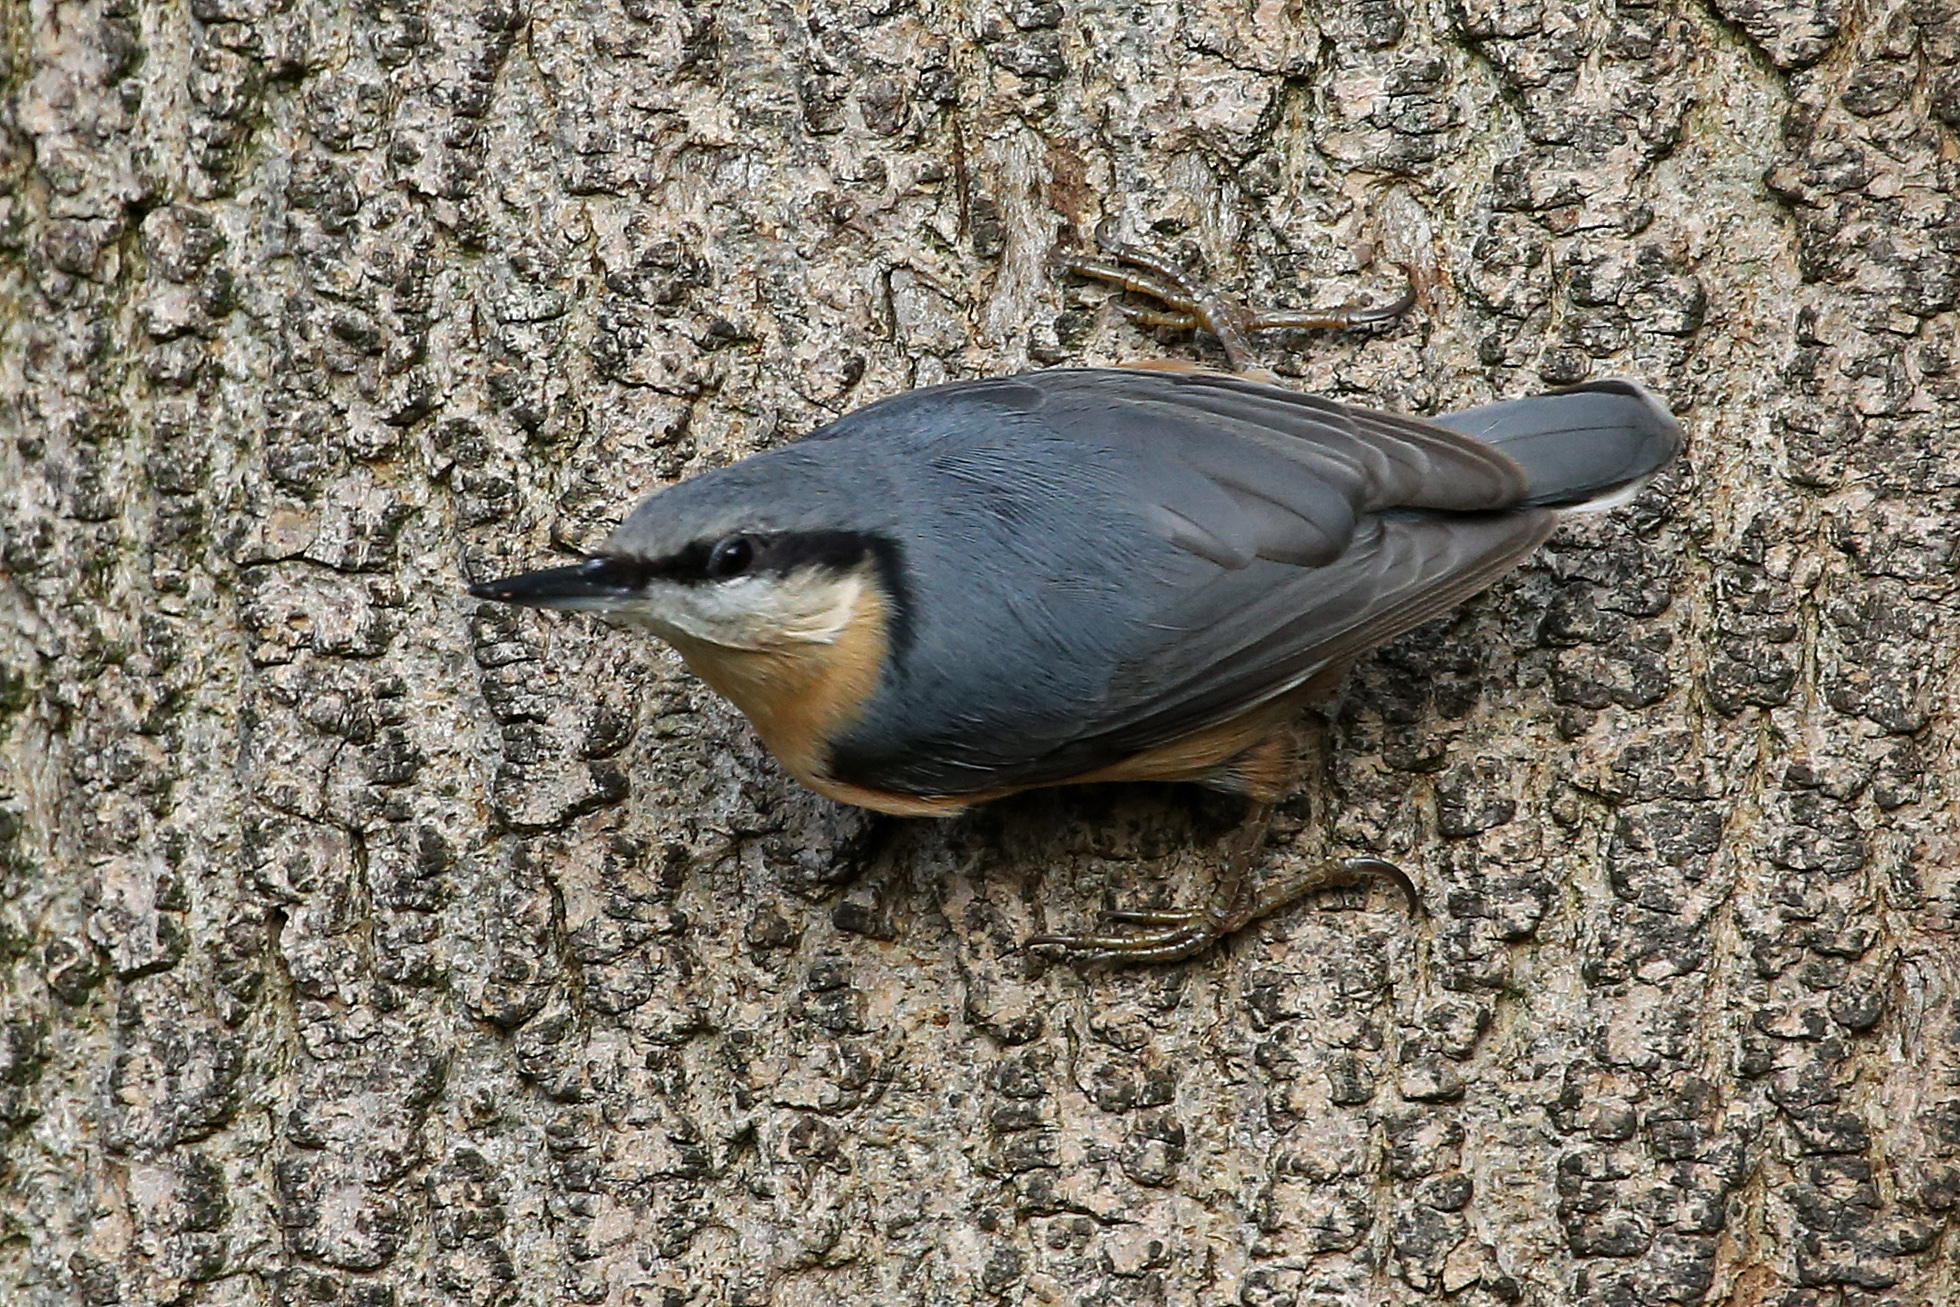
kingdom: Animalia
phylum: Chordata
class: Aves
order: Passeriformes
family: Sittidae
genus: Sitta
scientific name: Sitta europaea
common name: Eurasian nuthatch
